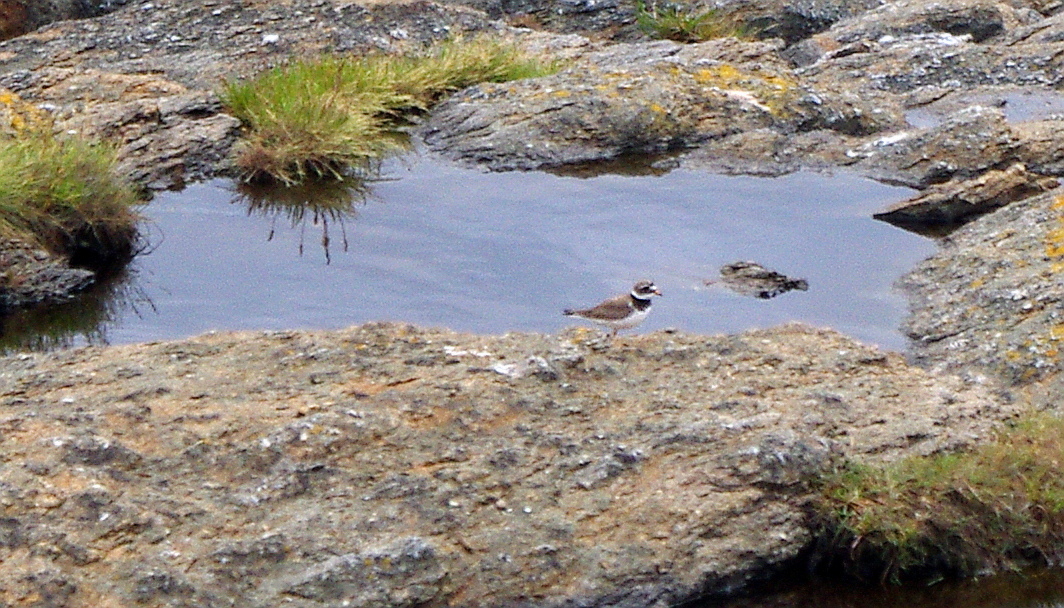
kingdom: Animalia
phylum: Chordata
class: Aves
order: Charadriiformes
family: Charadriidae
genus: Charadrius
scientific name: Charadrius hiaticula
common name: Common ringed plover
